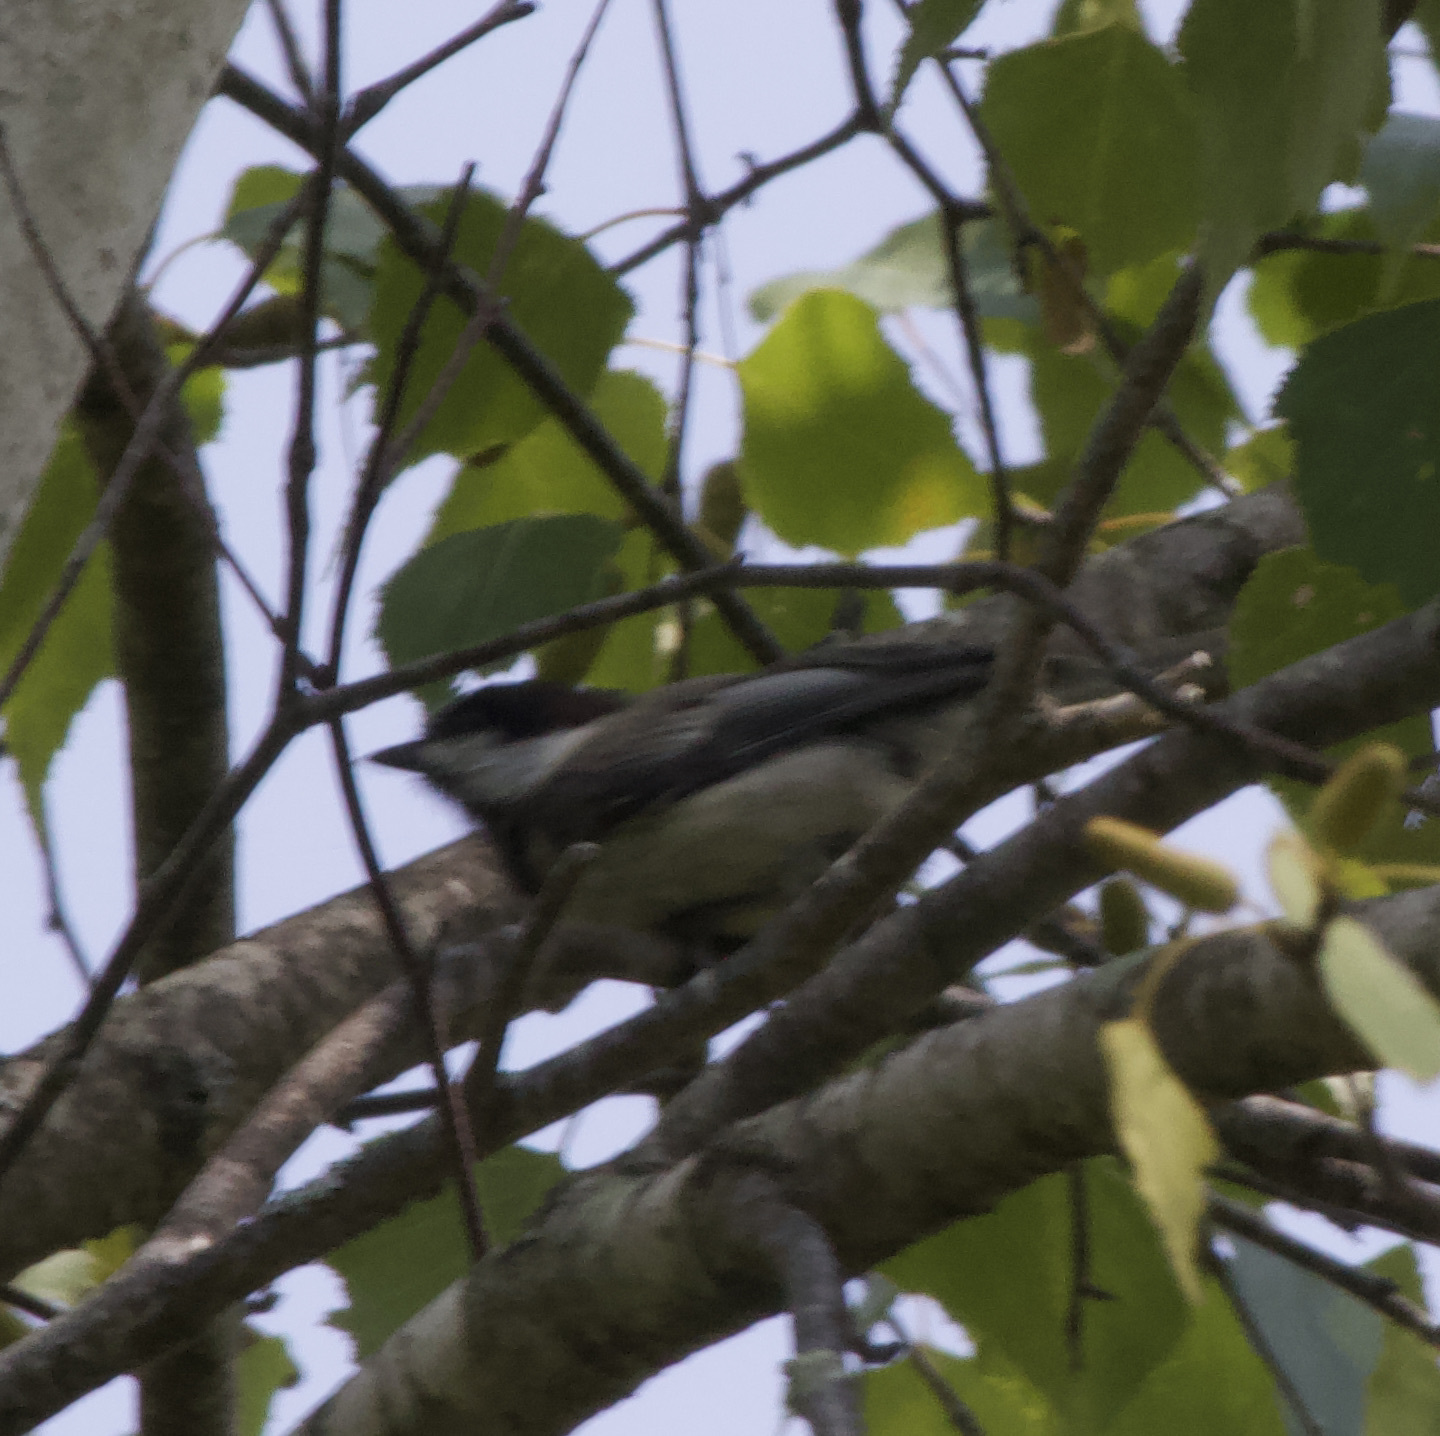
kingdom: Animalia
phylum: Chordata
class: Aves
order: Passeriformes
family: Paridae
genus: Poecile
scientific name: Poecile atricapillus
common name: Black-capped chickadee
